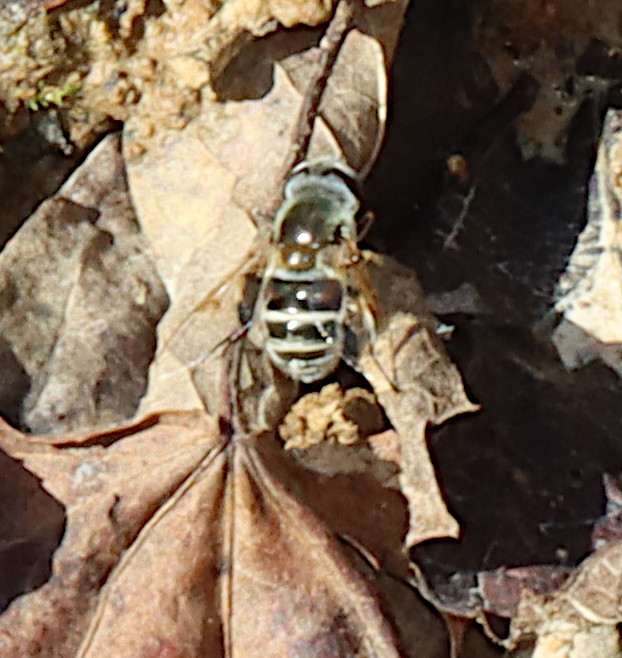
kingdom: Animalia
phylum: Arthropoda
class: Insecta
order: Diptera
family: Syrphidae
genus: Eristalis
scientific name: Eristalis stipator
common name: Yellow-shouldered drone fly
